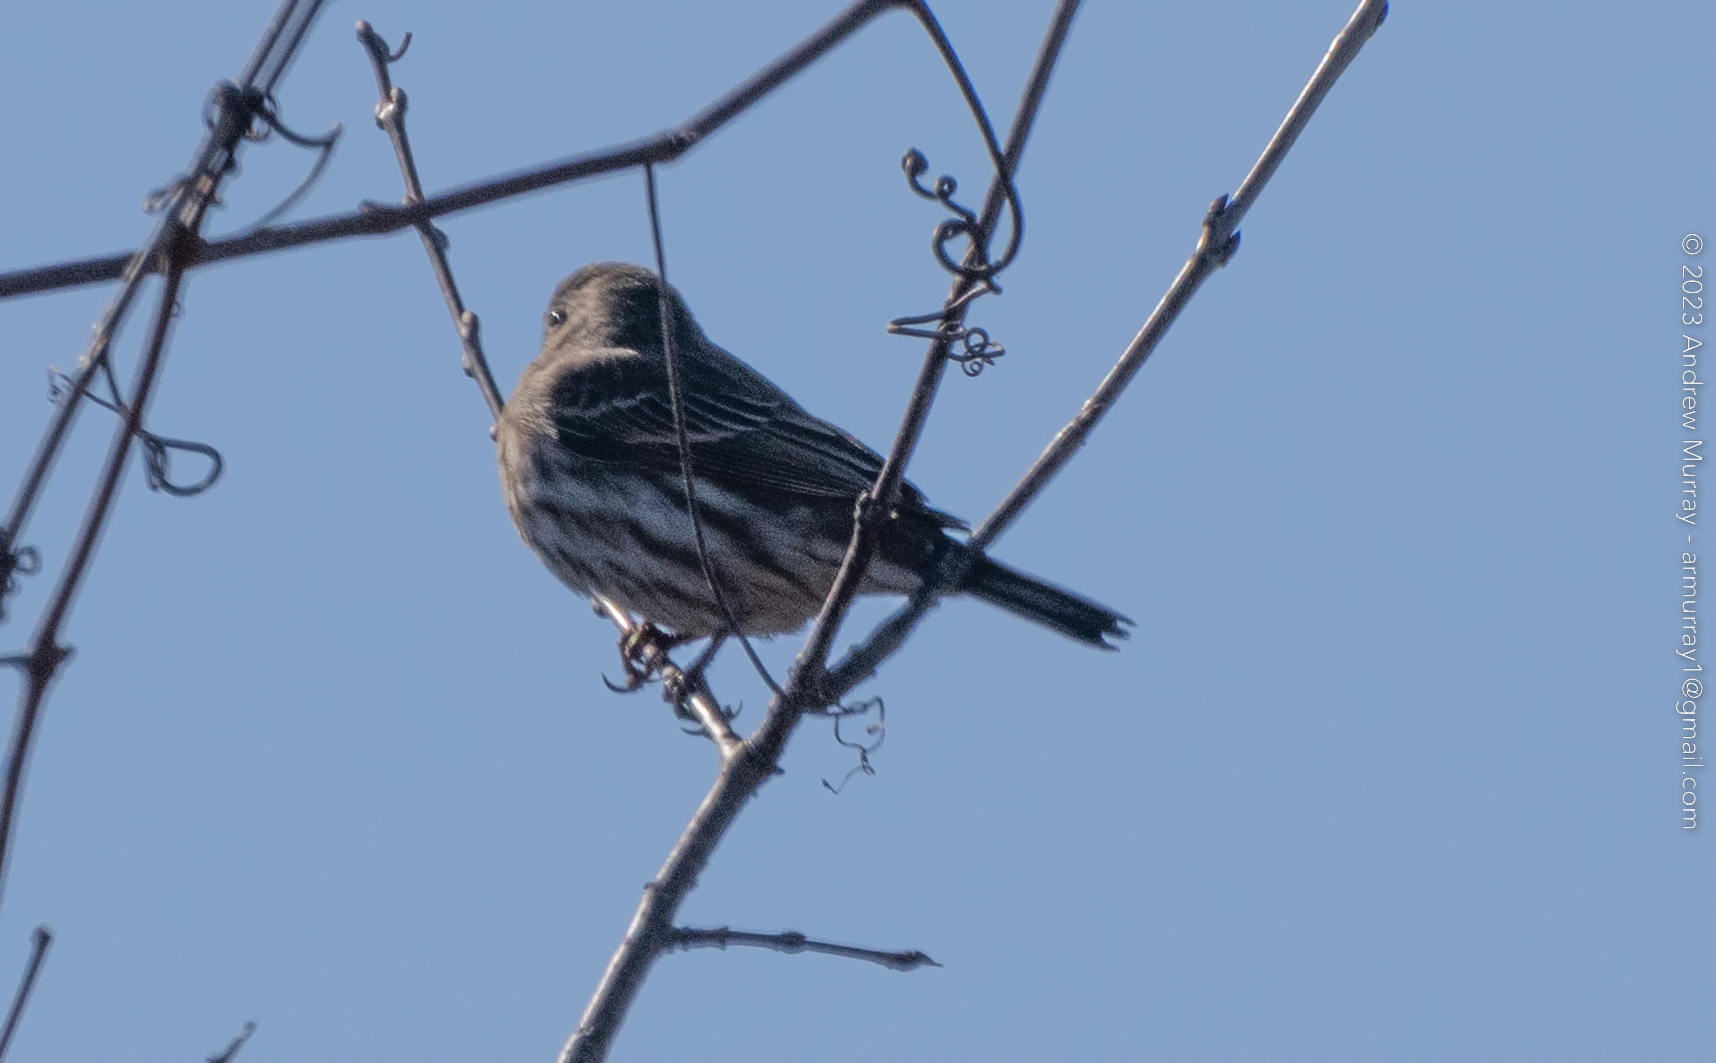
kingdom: Animalia
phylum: Chordata
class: Aves
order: Passeriformes
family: Fringillidae
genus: Haemorhous
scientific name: Haemorhous mexicanus
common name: House finch
